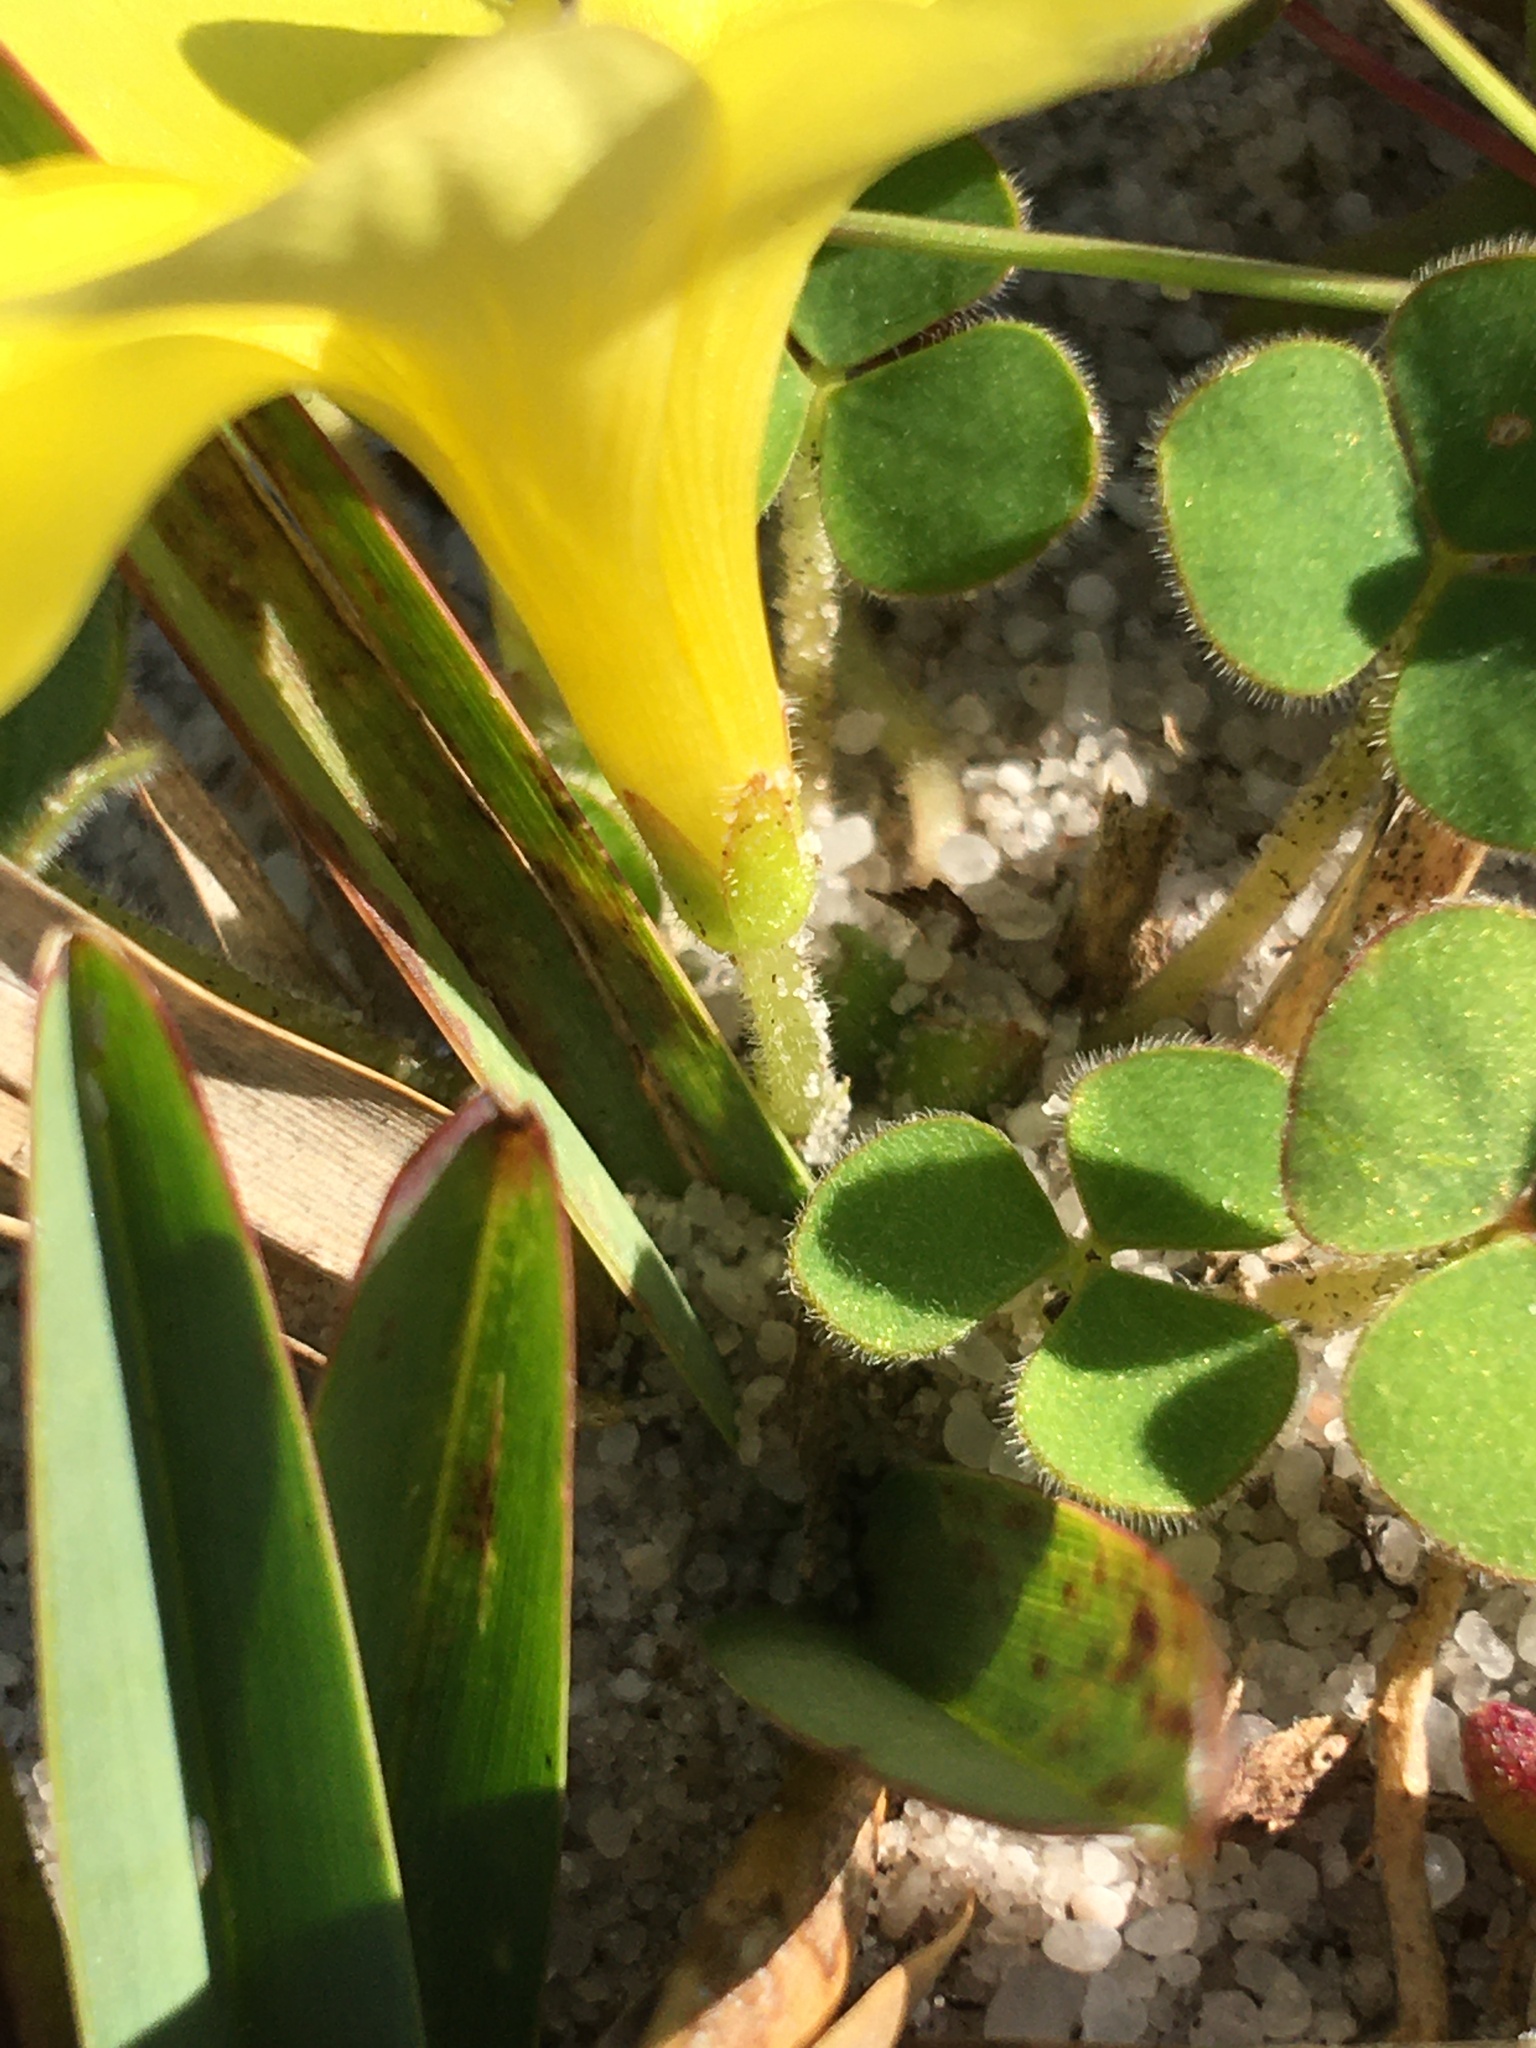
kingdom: Plantae
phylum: Tracheophyta
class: Magnoliopsida
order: Oxalidales
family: Oxalidaceae
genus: Oxalis
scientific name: Oxalis luteola
